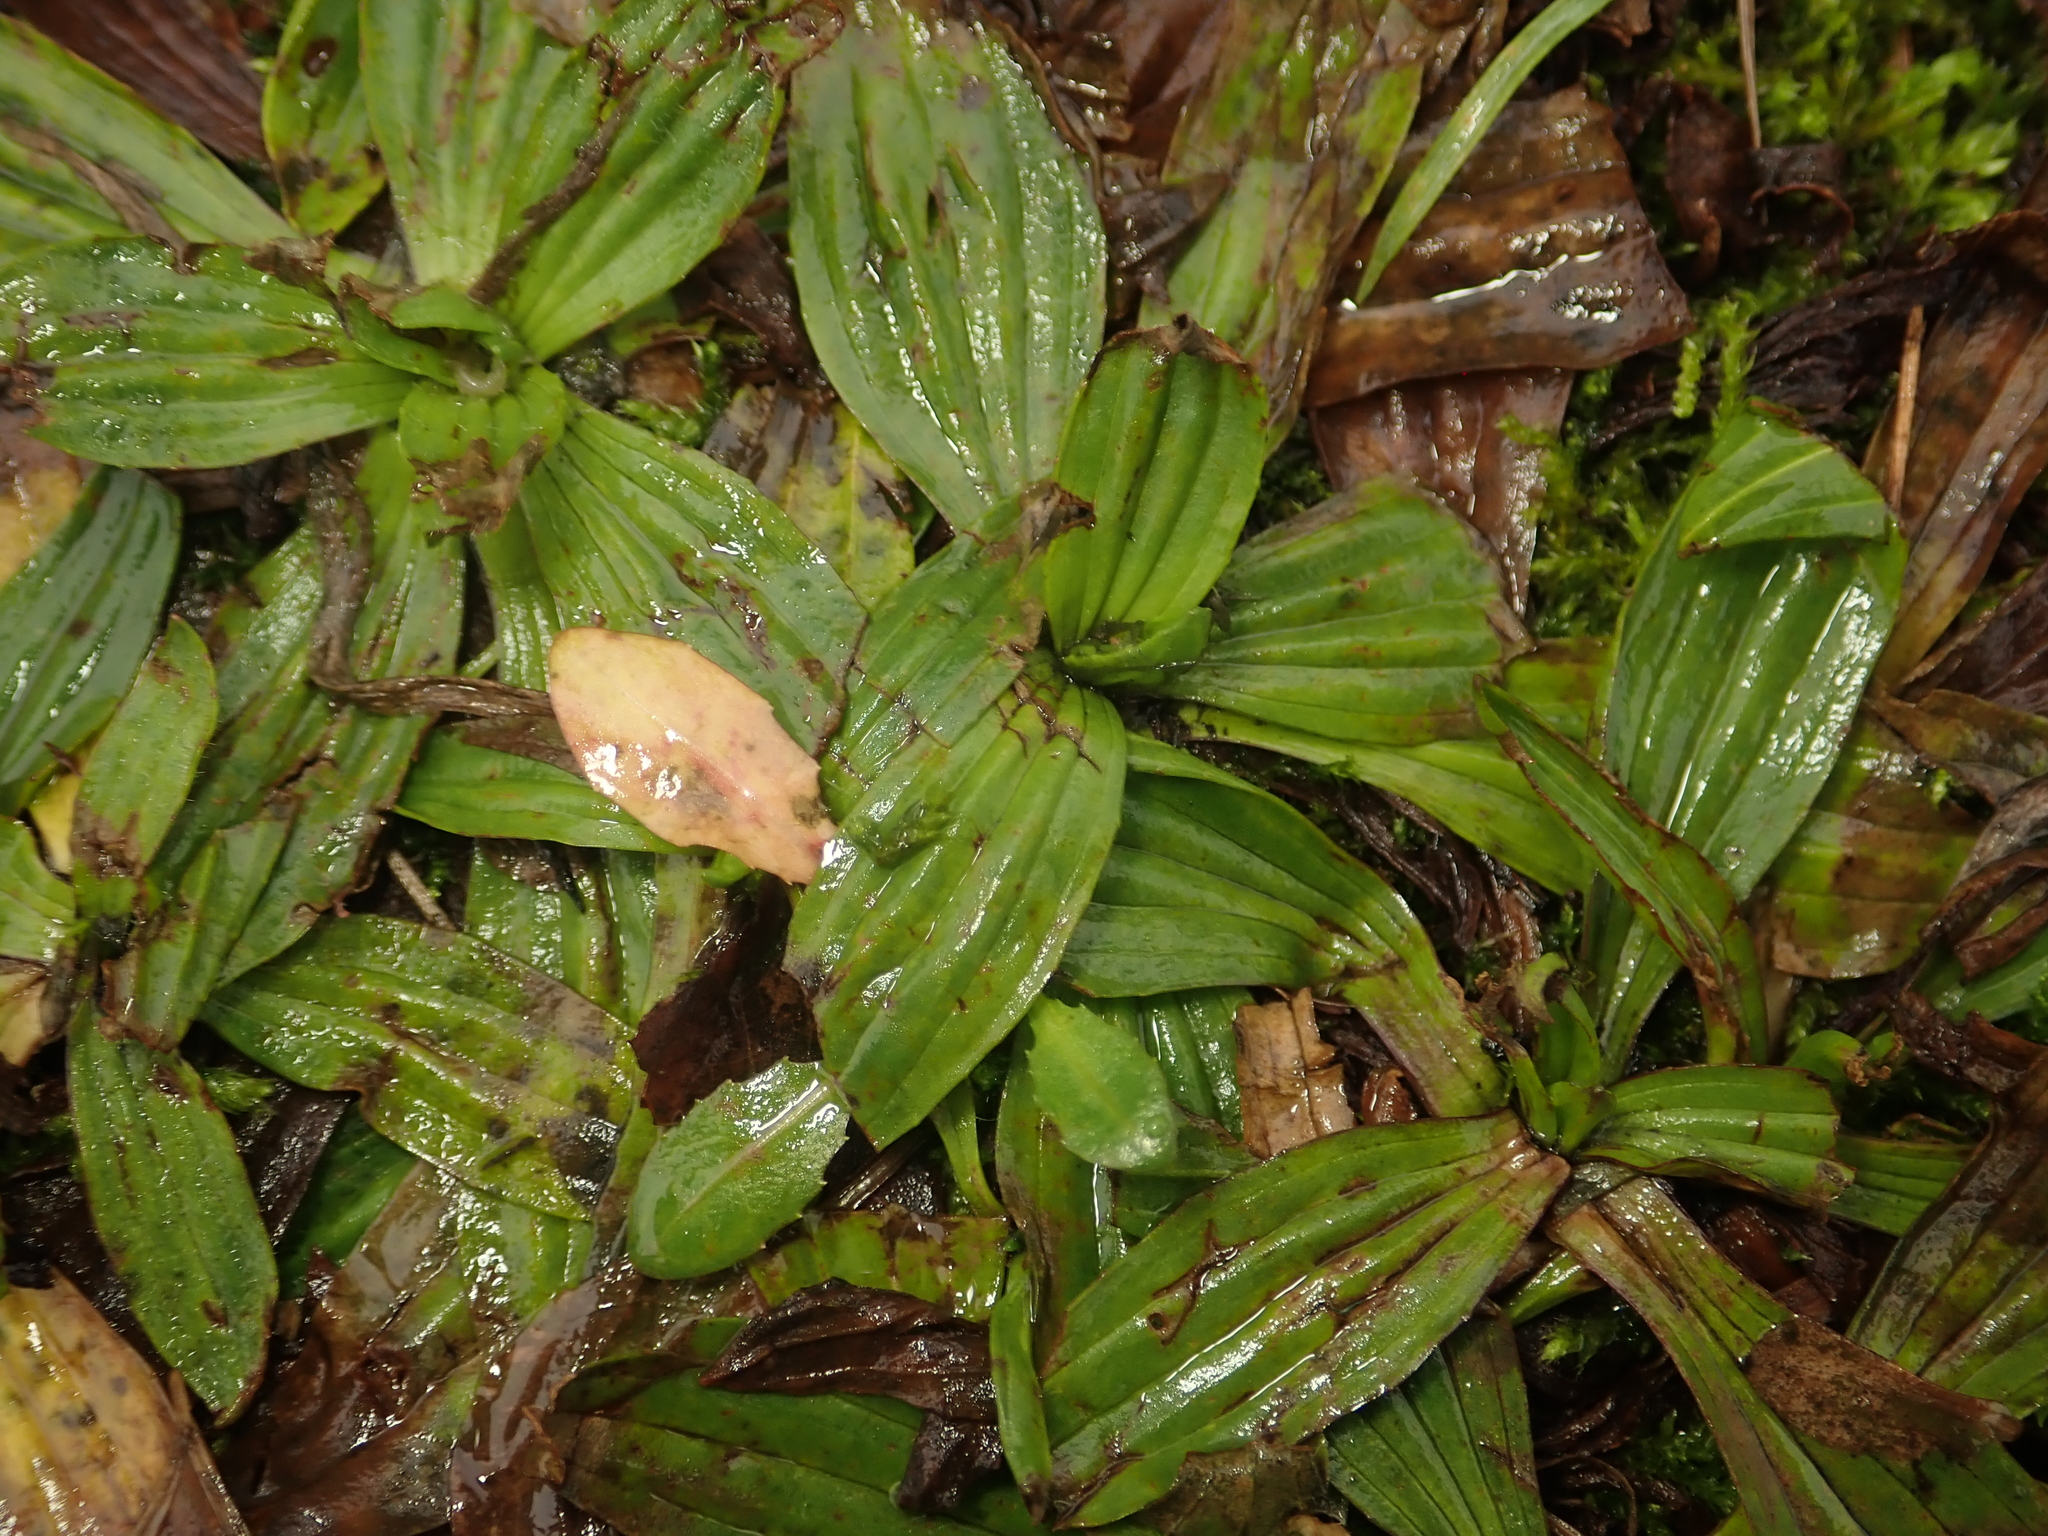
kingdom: Plantae
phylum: Tracheophyta
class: Magnoliopsida
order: Lamiales
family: Plantaginaceae
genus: Plantago
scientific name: Plantago lanceolata
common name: Ribwort plantain
